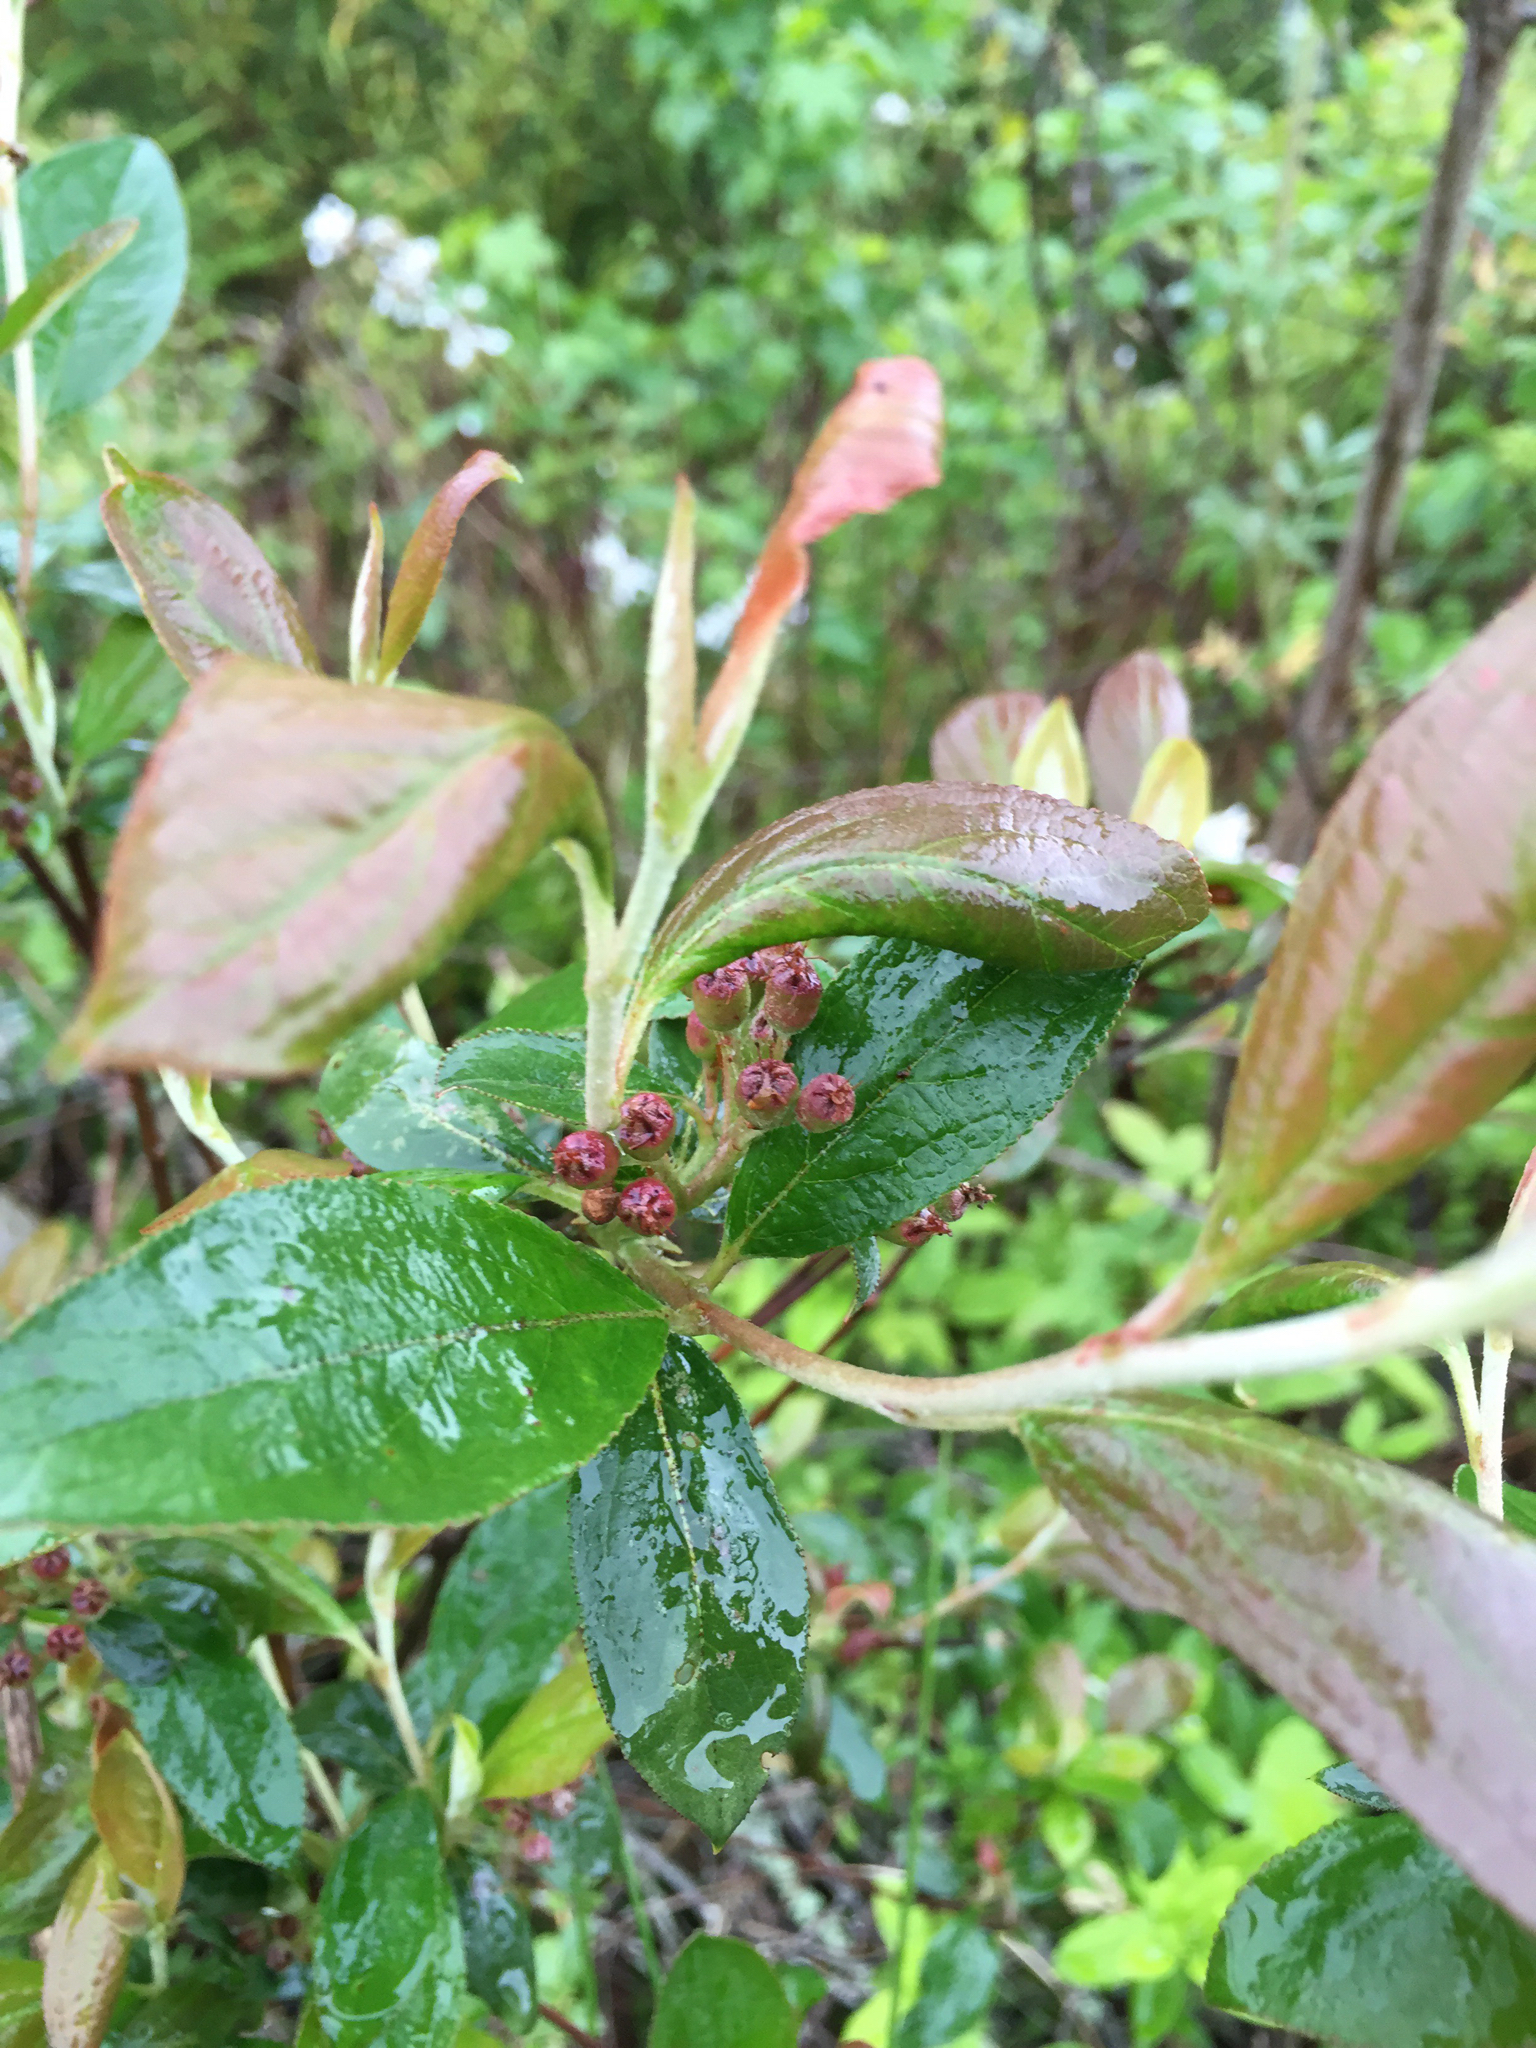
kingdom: Plantae
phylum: Tracheophyta
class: Magnoliopsida
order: Rosales
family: Rosaceae
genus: Aronia
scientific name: Aronia melanocarpa
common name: Black chokeberry
